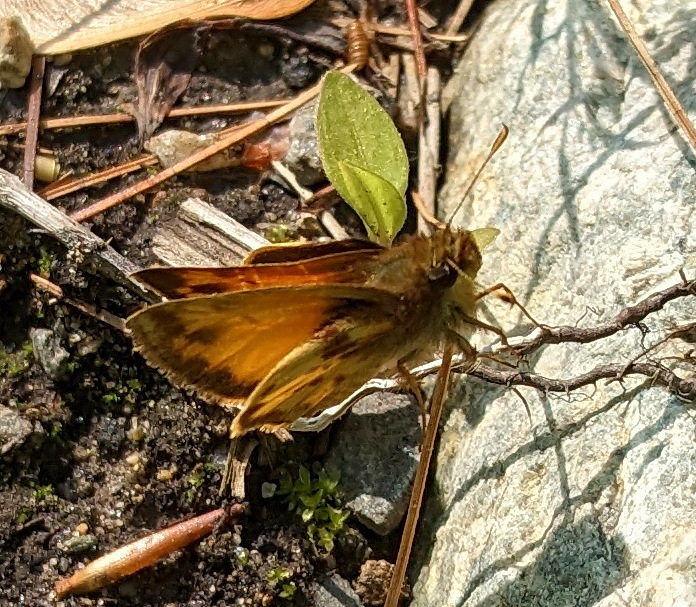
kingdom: Animalia
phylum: Arthropoda
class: Insecta
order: Lepidoptera
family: Hesperiidae
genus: Lon
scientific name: Lon zabulon
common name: Zabulon skipper
